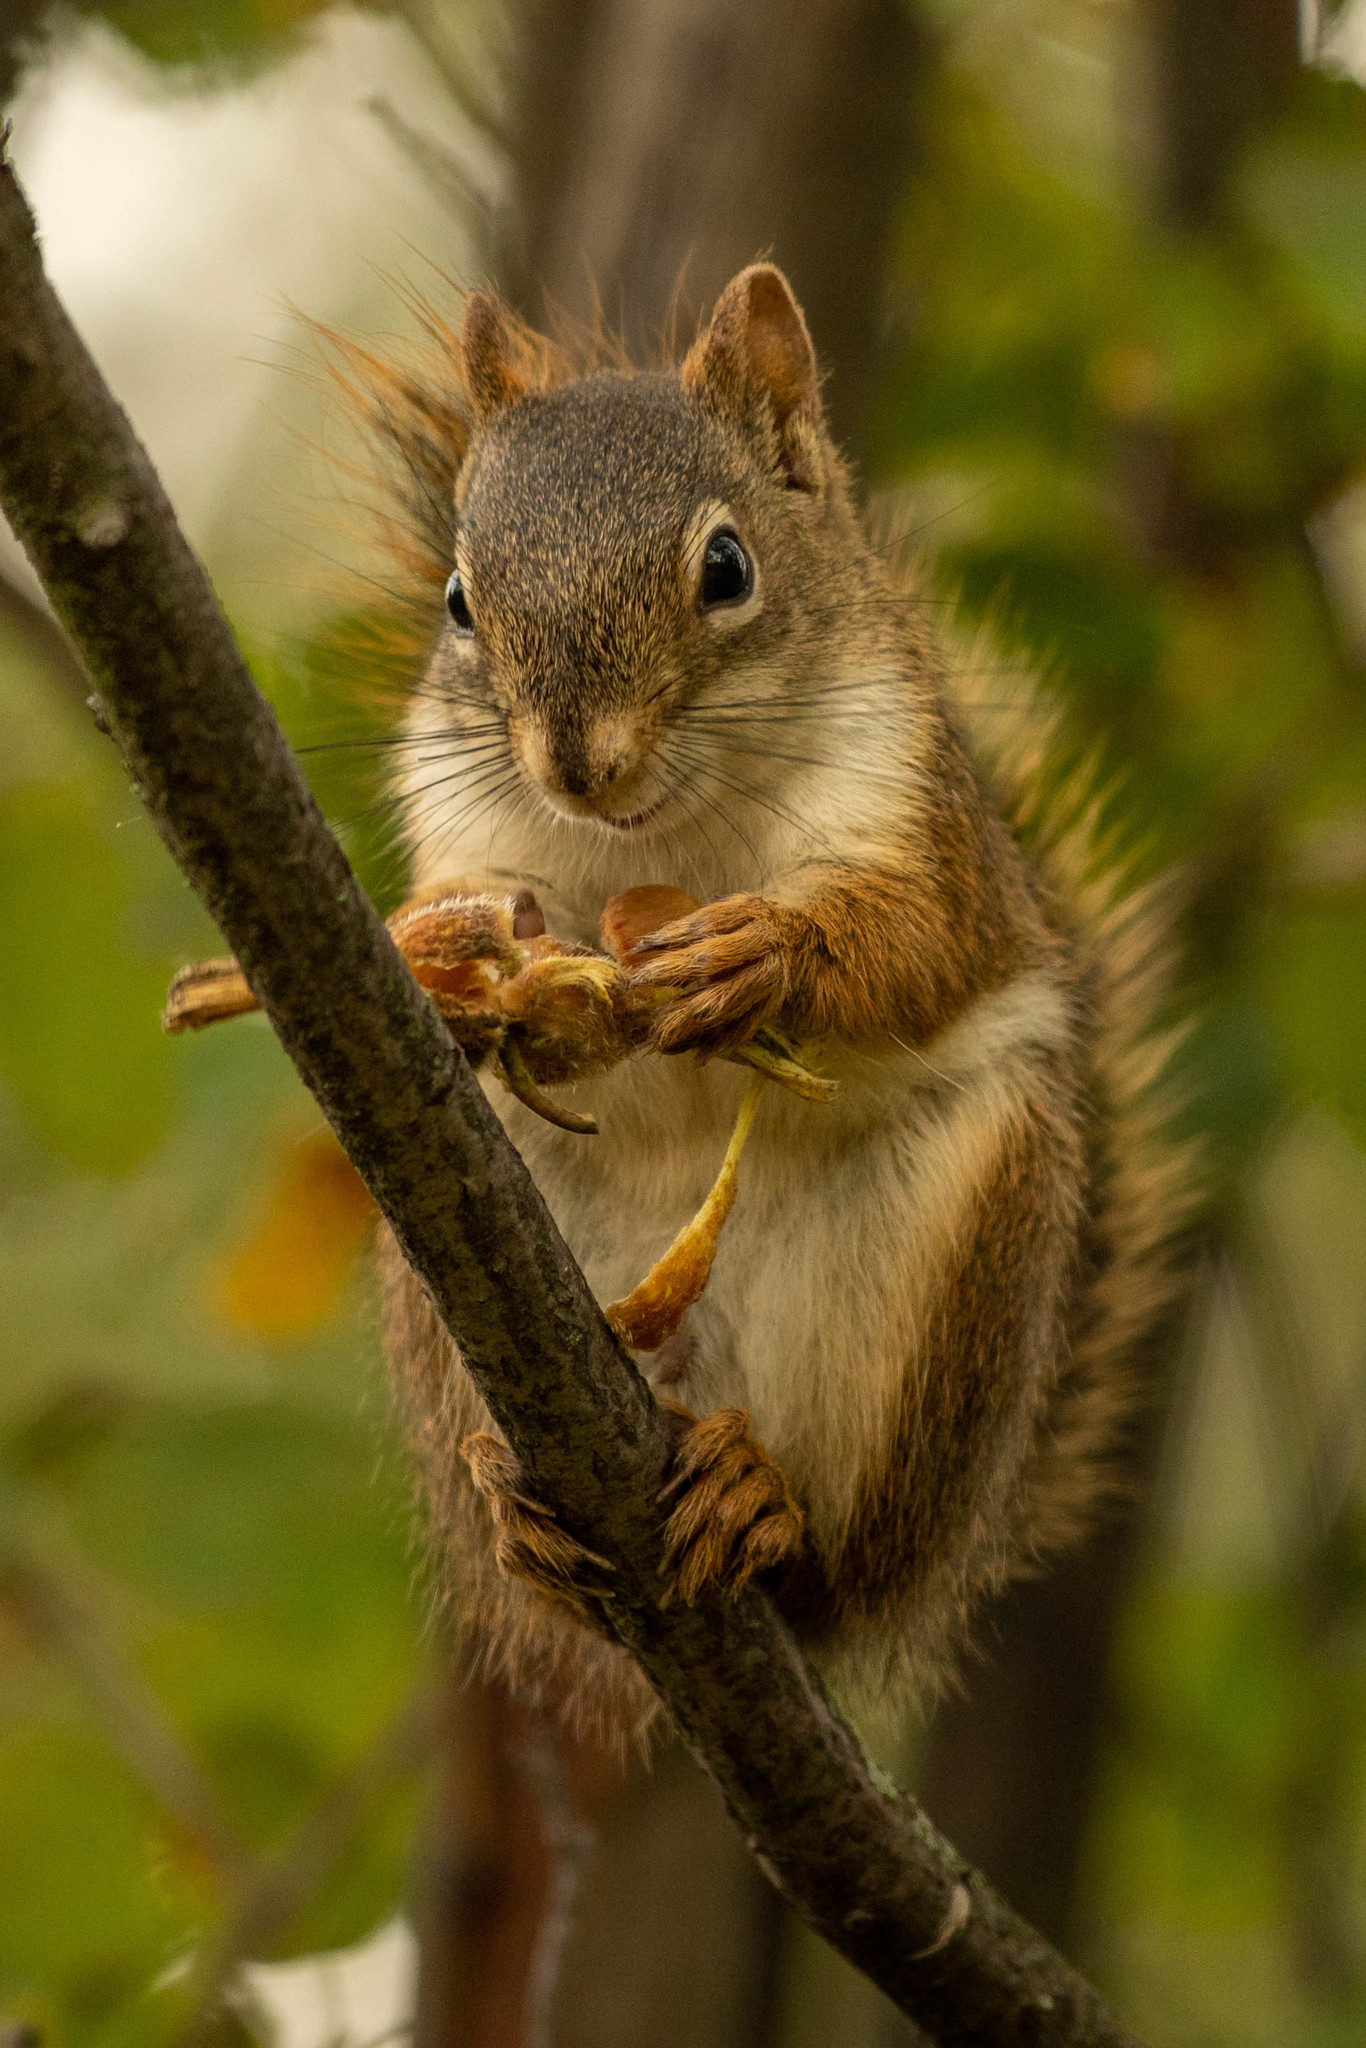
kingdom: Animalia
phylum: Chordata
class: Mammalia
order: Rodentia
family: Sciuridae
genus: Tamiasciurus
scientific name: Tamiasciurus hudsonicus
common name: Red squirrel
